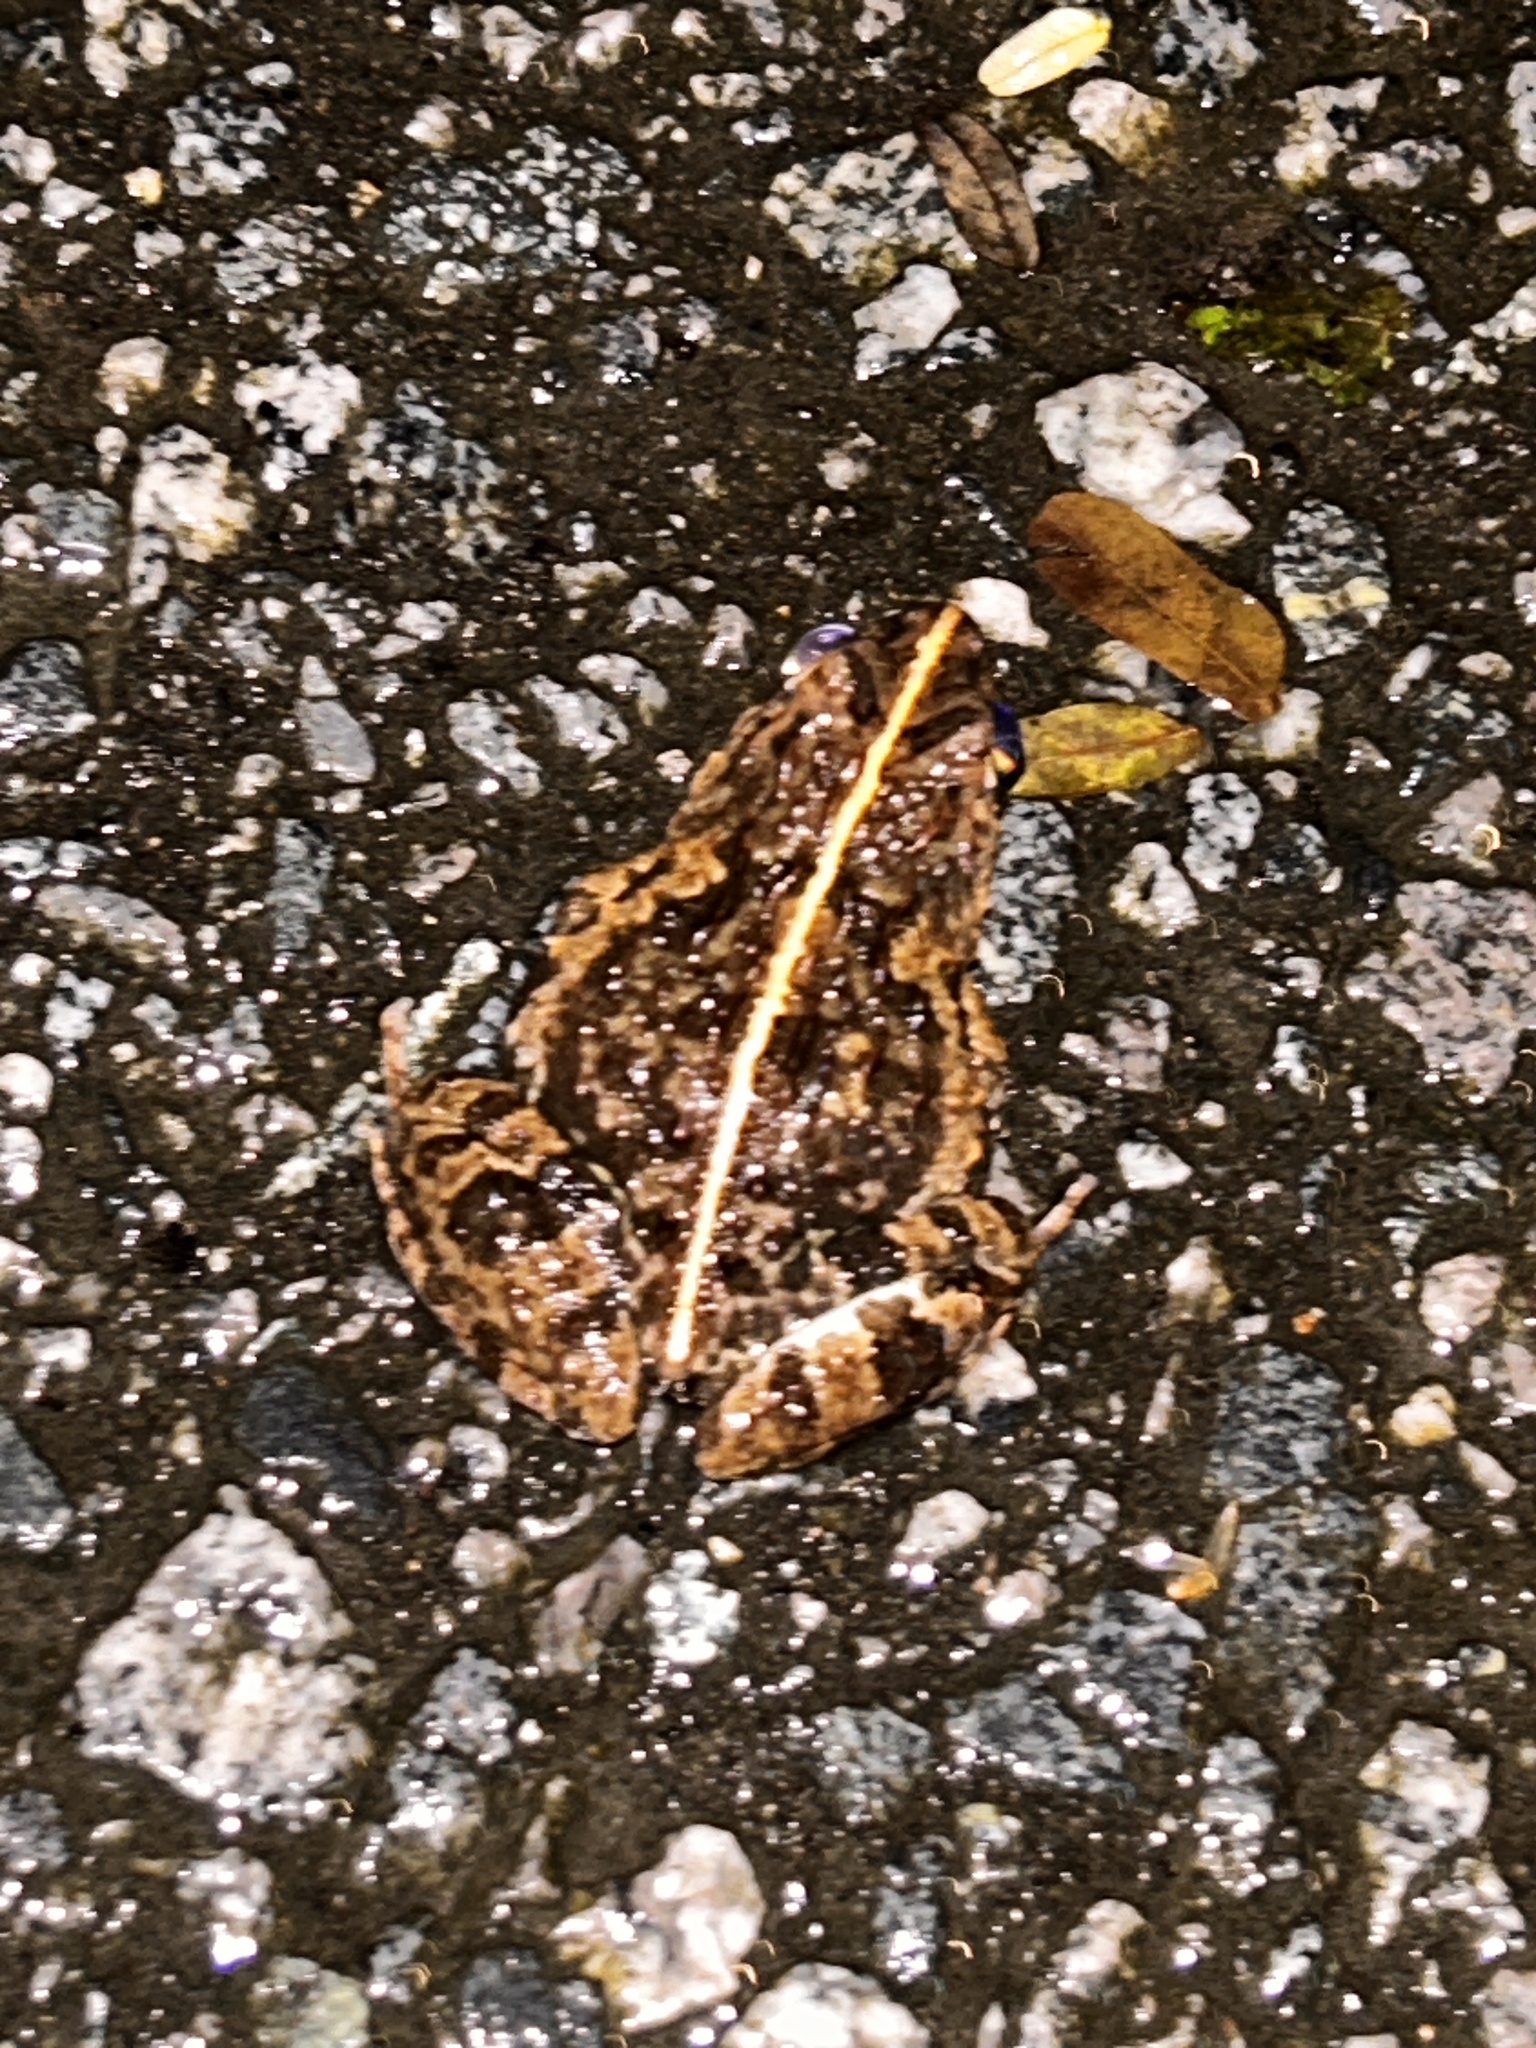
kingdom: Animalia
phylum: Chordata
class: Amphibia
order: Anura
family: Dicroglossidae
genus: Fejervarya
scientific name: Fejervarya limnocharis
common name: Asian grass frog/common pond frog/field frog/grass frog/indian rice frog
